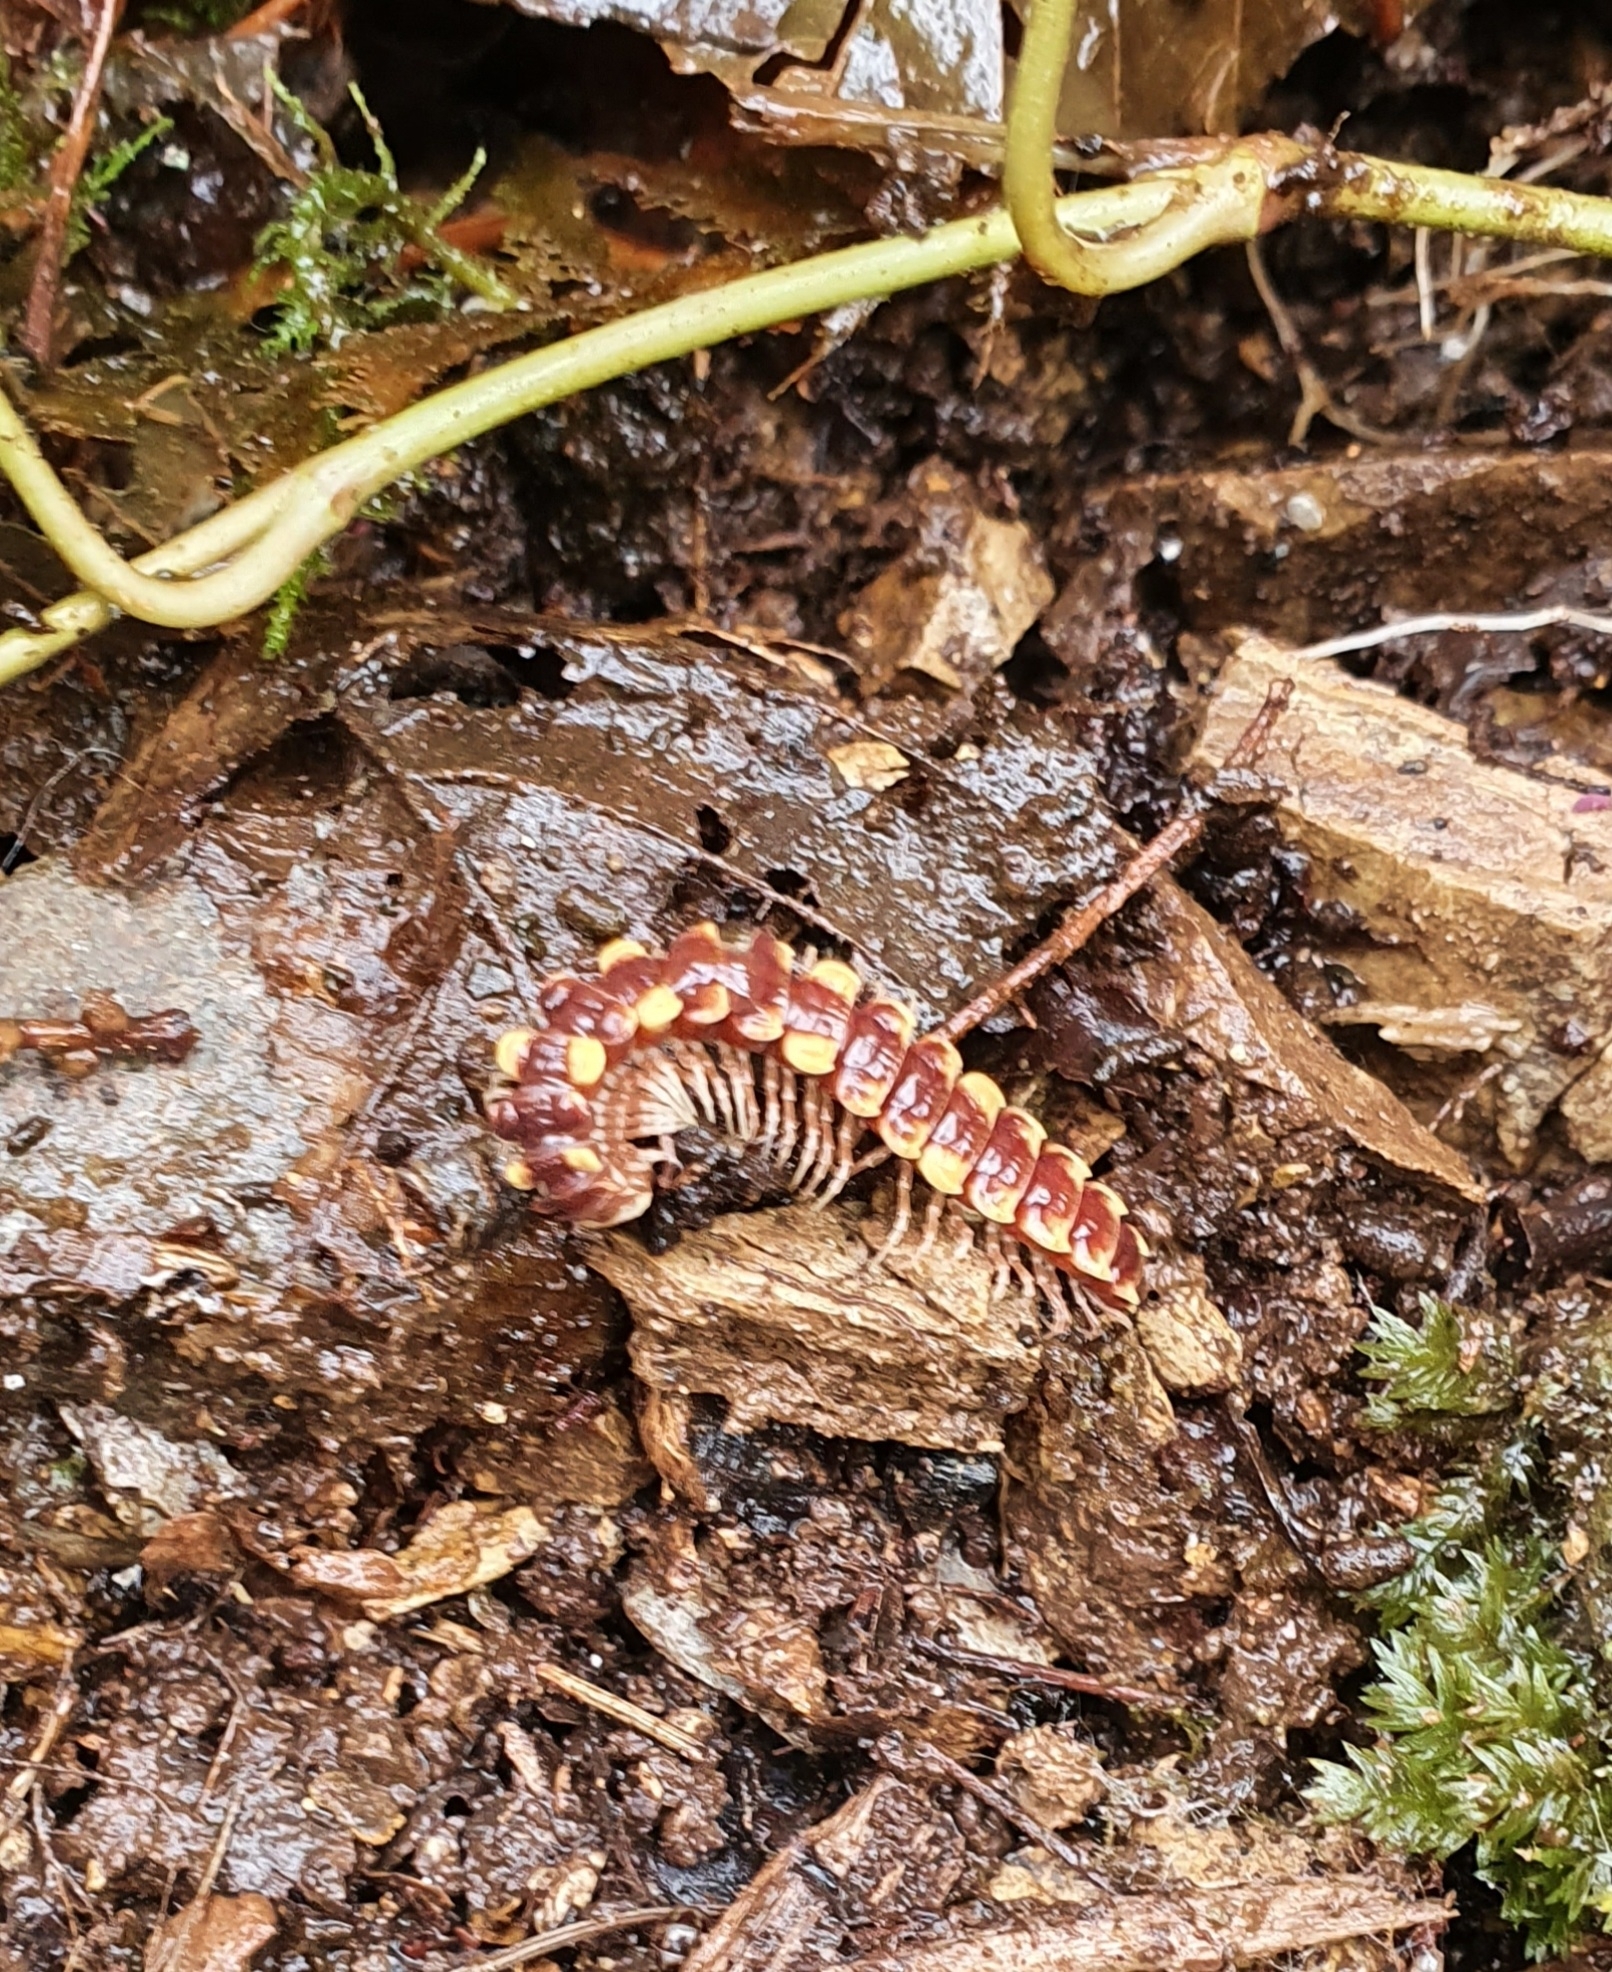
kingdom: Animalia
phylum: Arthropoda
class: Diplopoda
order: Polydesmida
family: Polydesmidae
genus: Polydesmus
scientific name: Polydesmus collaris
